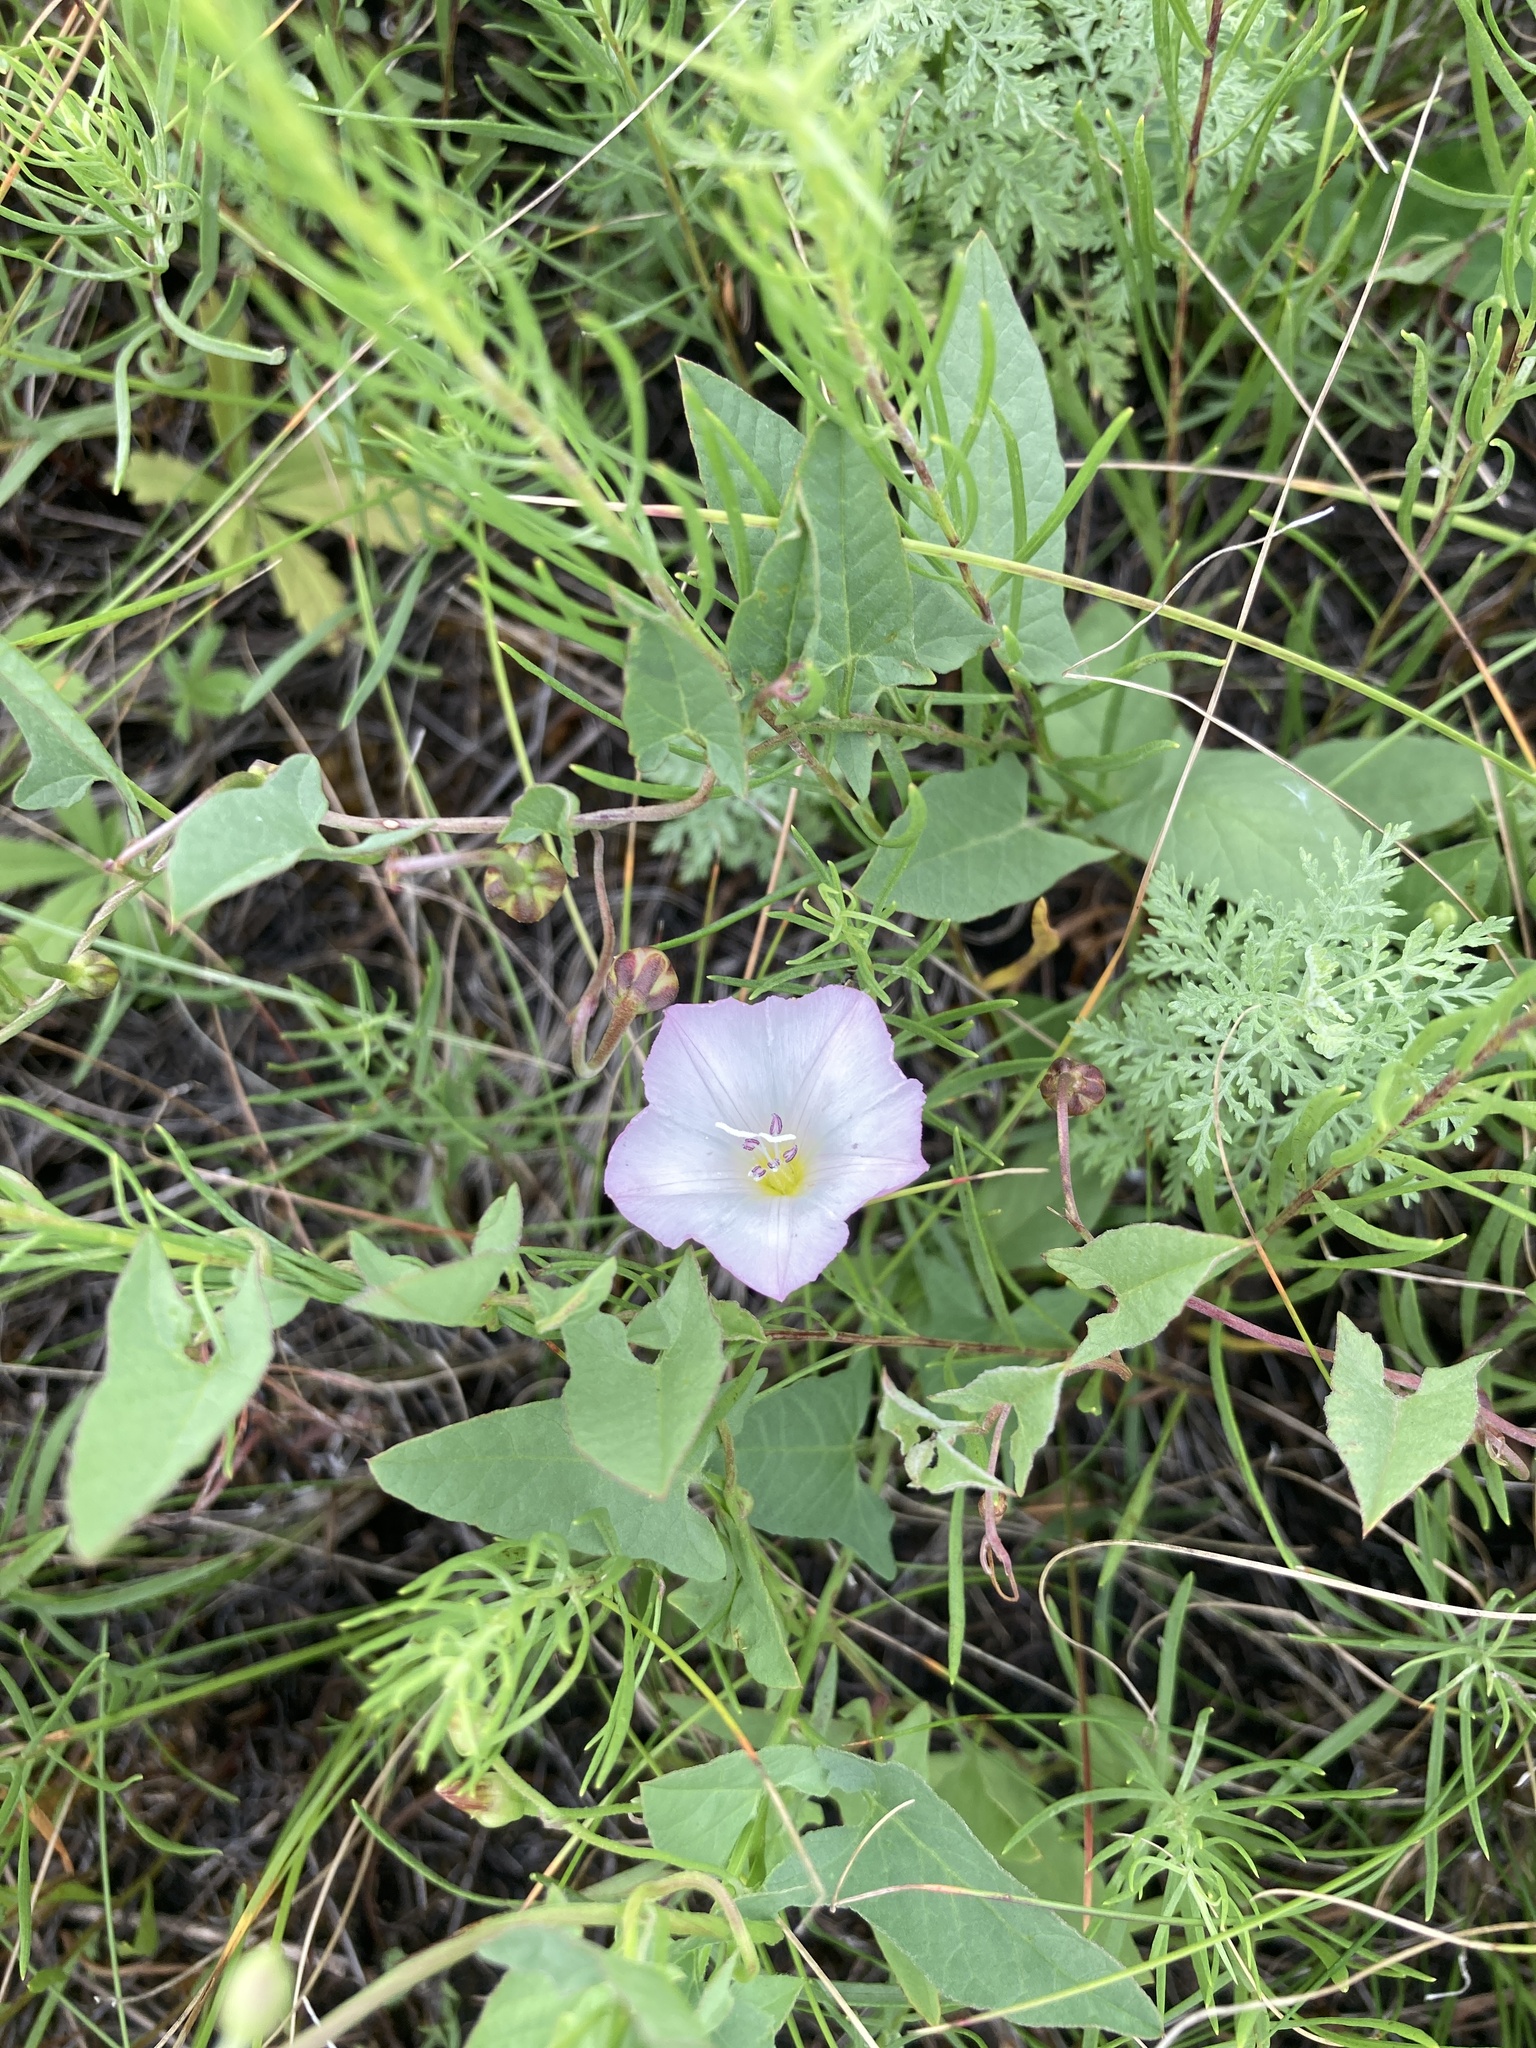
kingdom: Plantae
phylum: Tracheophyta
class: Magnoliopsida
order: Solanales
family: Convolvulaceae
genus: Convolvulus
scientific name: Convolvulus arvensis
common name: Field bindweed
